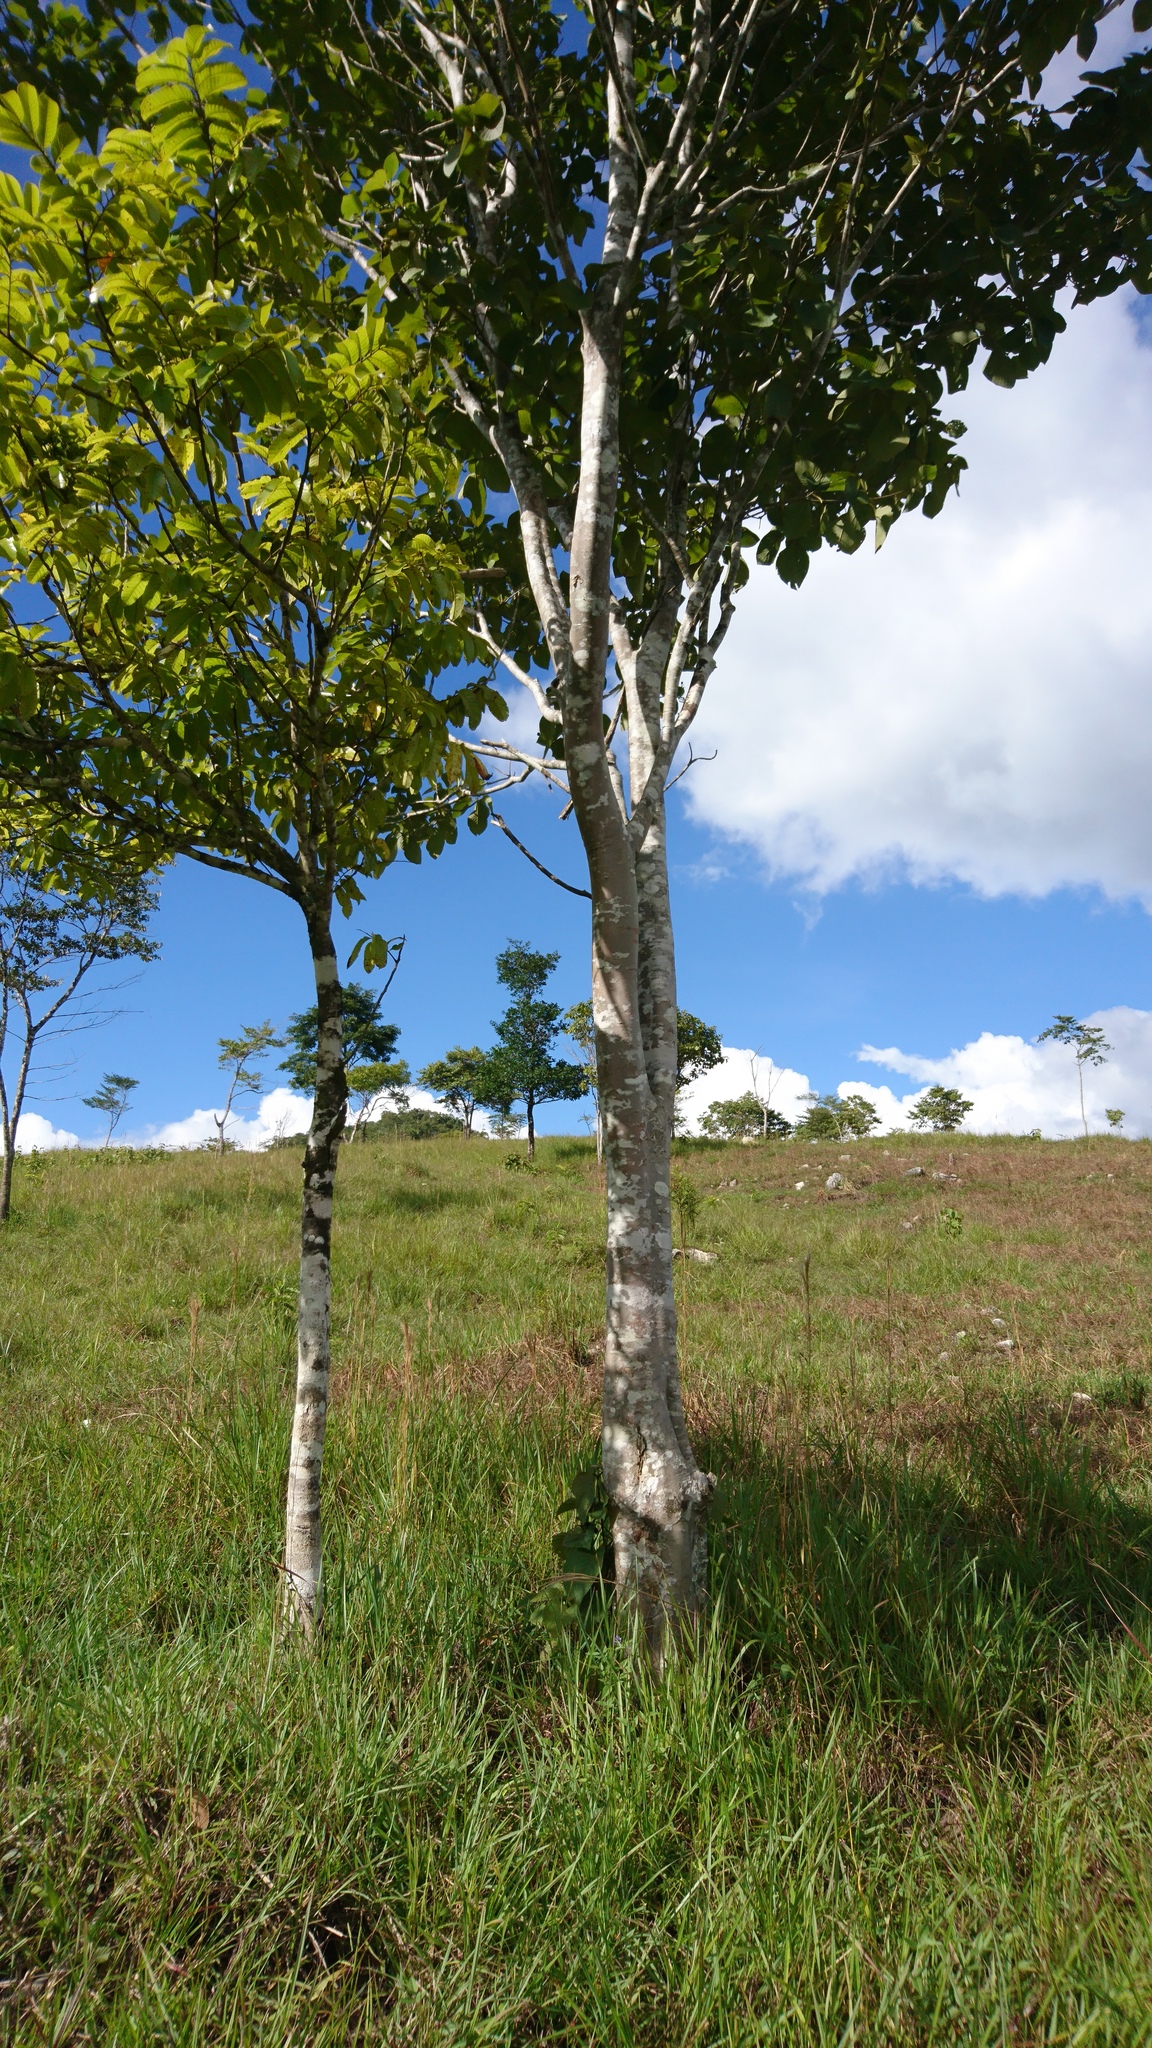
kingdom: Plantae
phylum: Tracheophyta
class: Magnoliopsida
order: Gentianales
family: Rubiaceae
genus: Simira
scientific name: Simira salvadorensis
